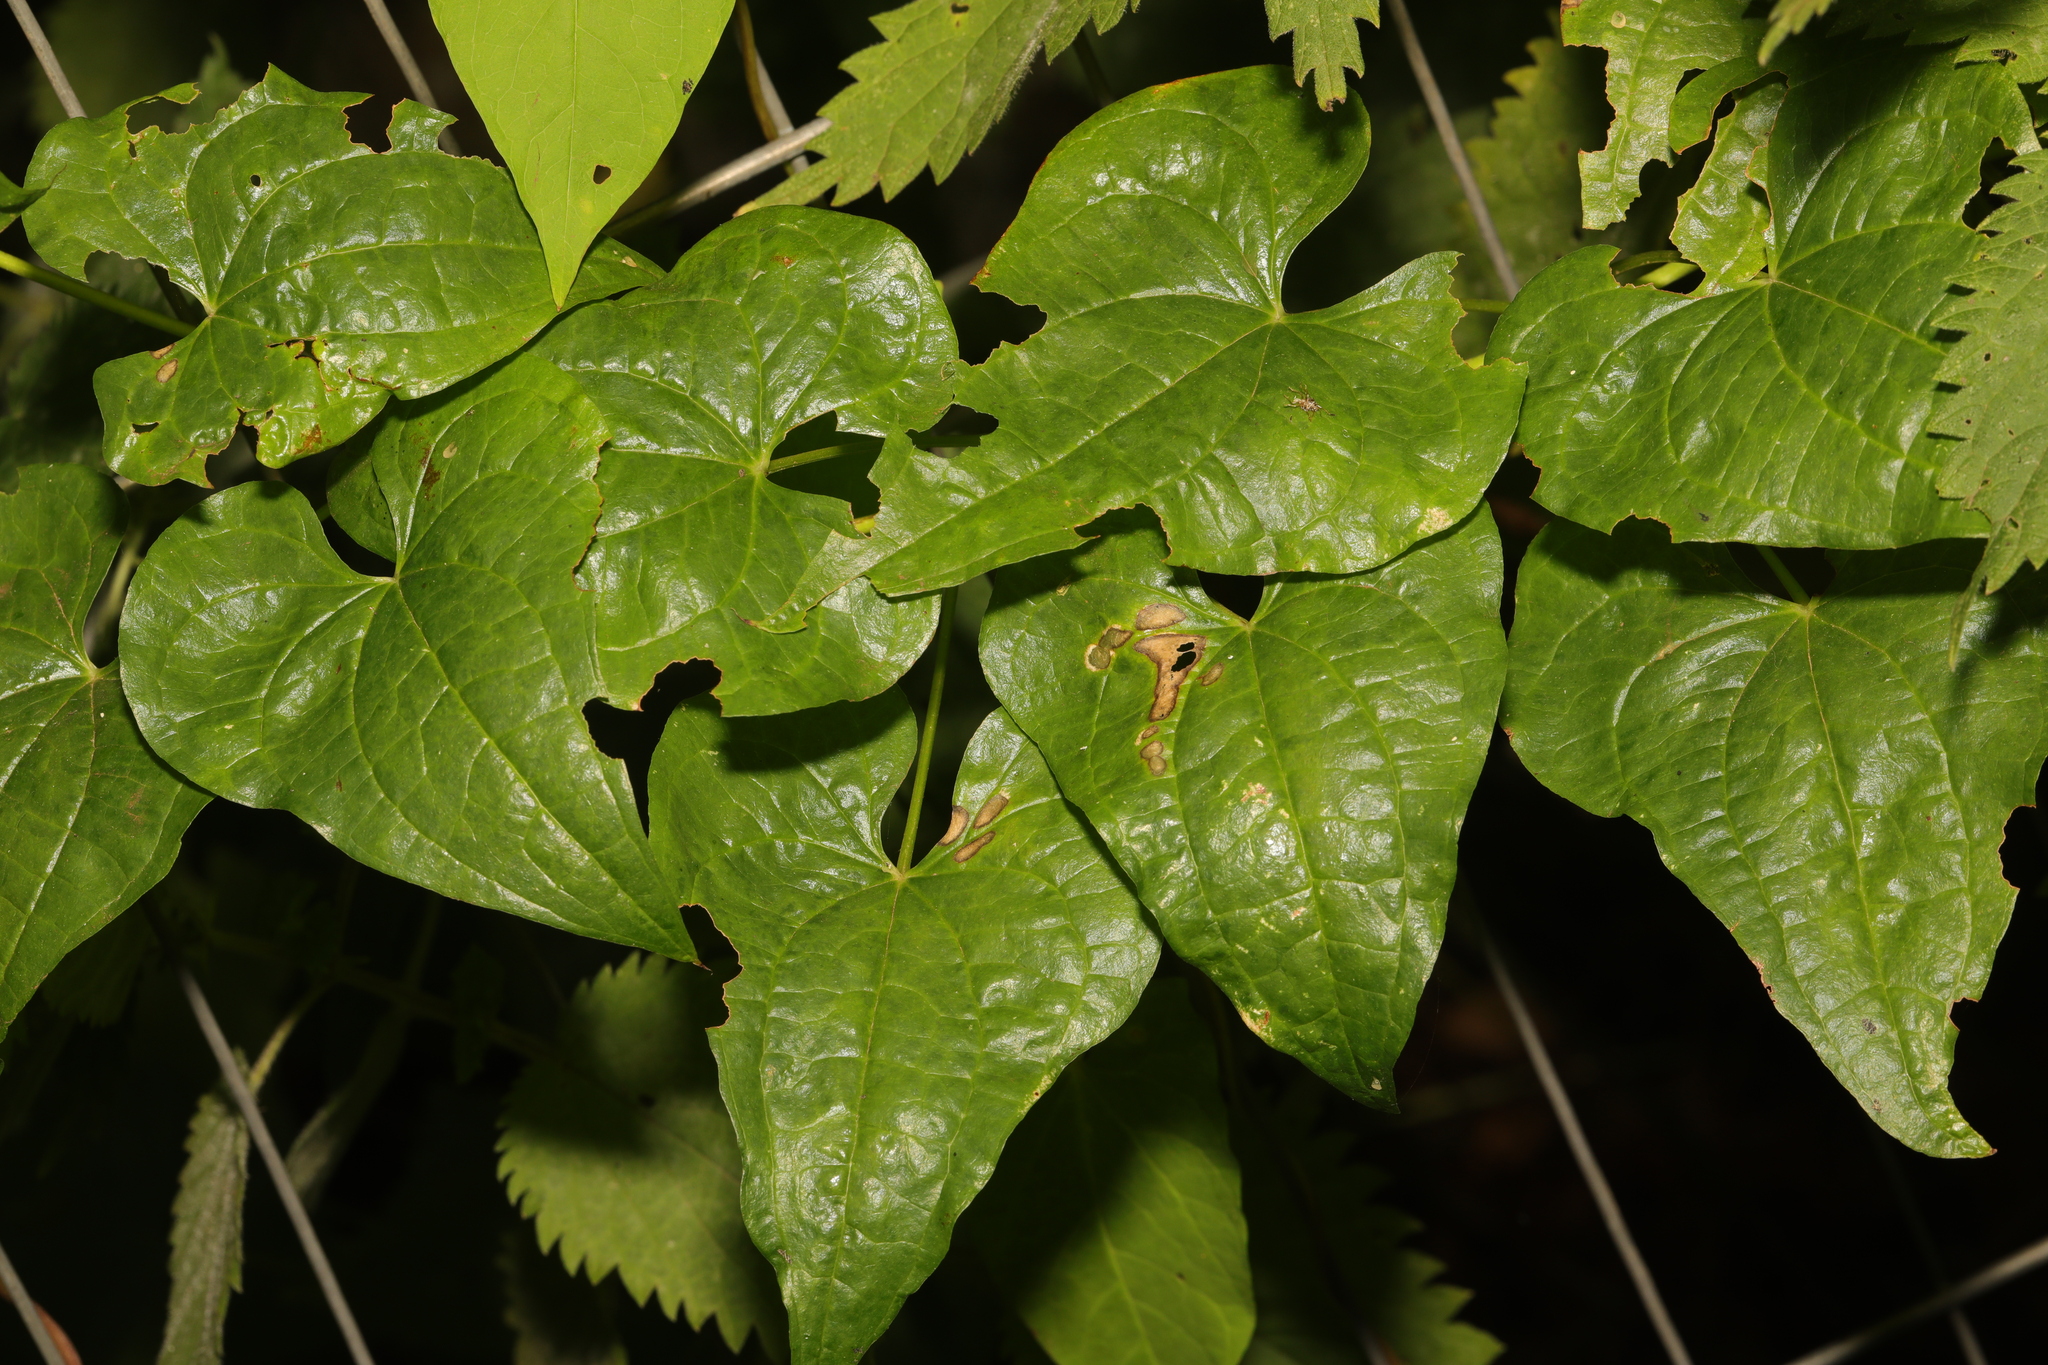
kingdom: Plantae
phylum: Tracheophyta
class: Liliopsida
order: Dioscoreales
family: Dioscoreaceae
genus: Dioscorea
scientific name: Dioscorea communis
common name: Black-bindweed
